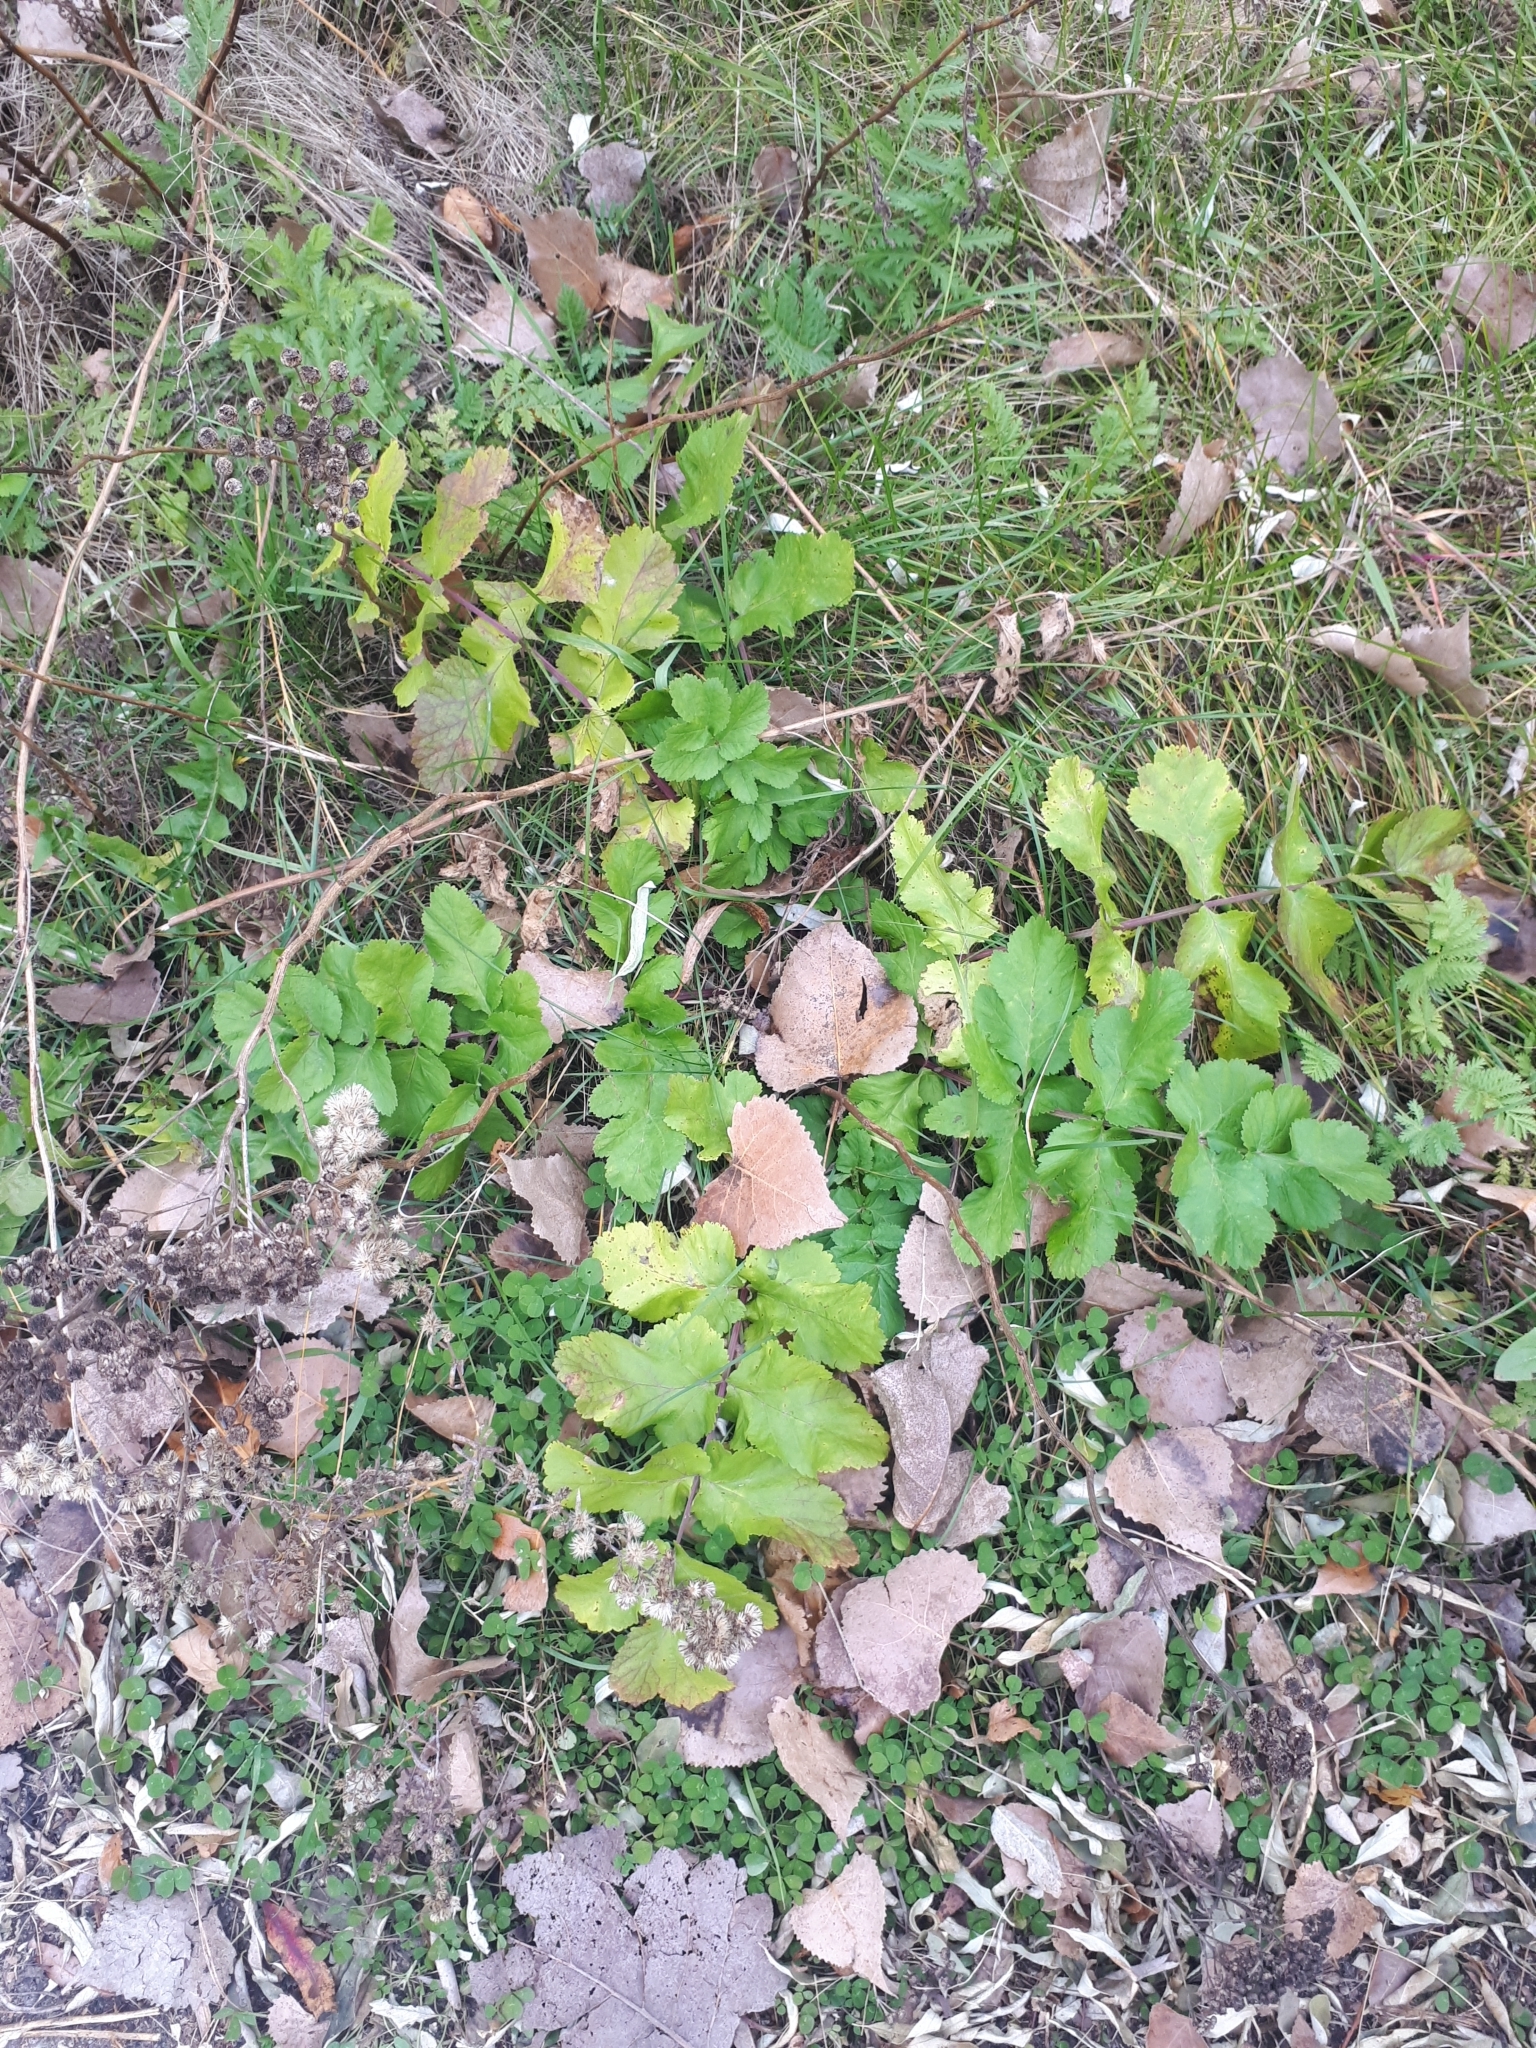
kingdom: Plantae
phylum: Tracheophyta
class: Magnoliopsida
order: Apiales
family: Apiaceae
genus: Pastinaca
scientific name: Pastinaca sativa
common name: Wild parsnip
